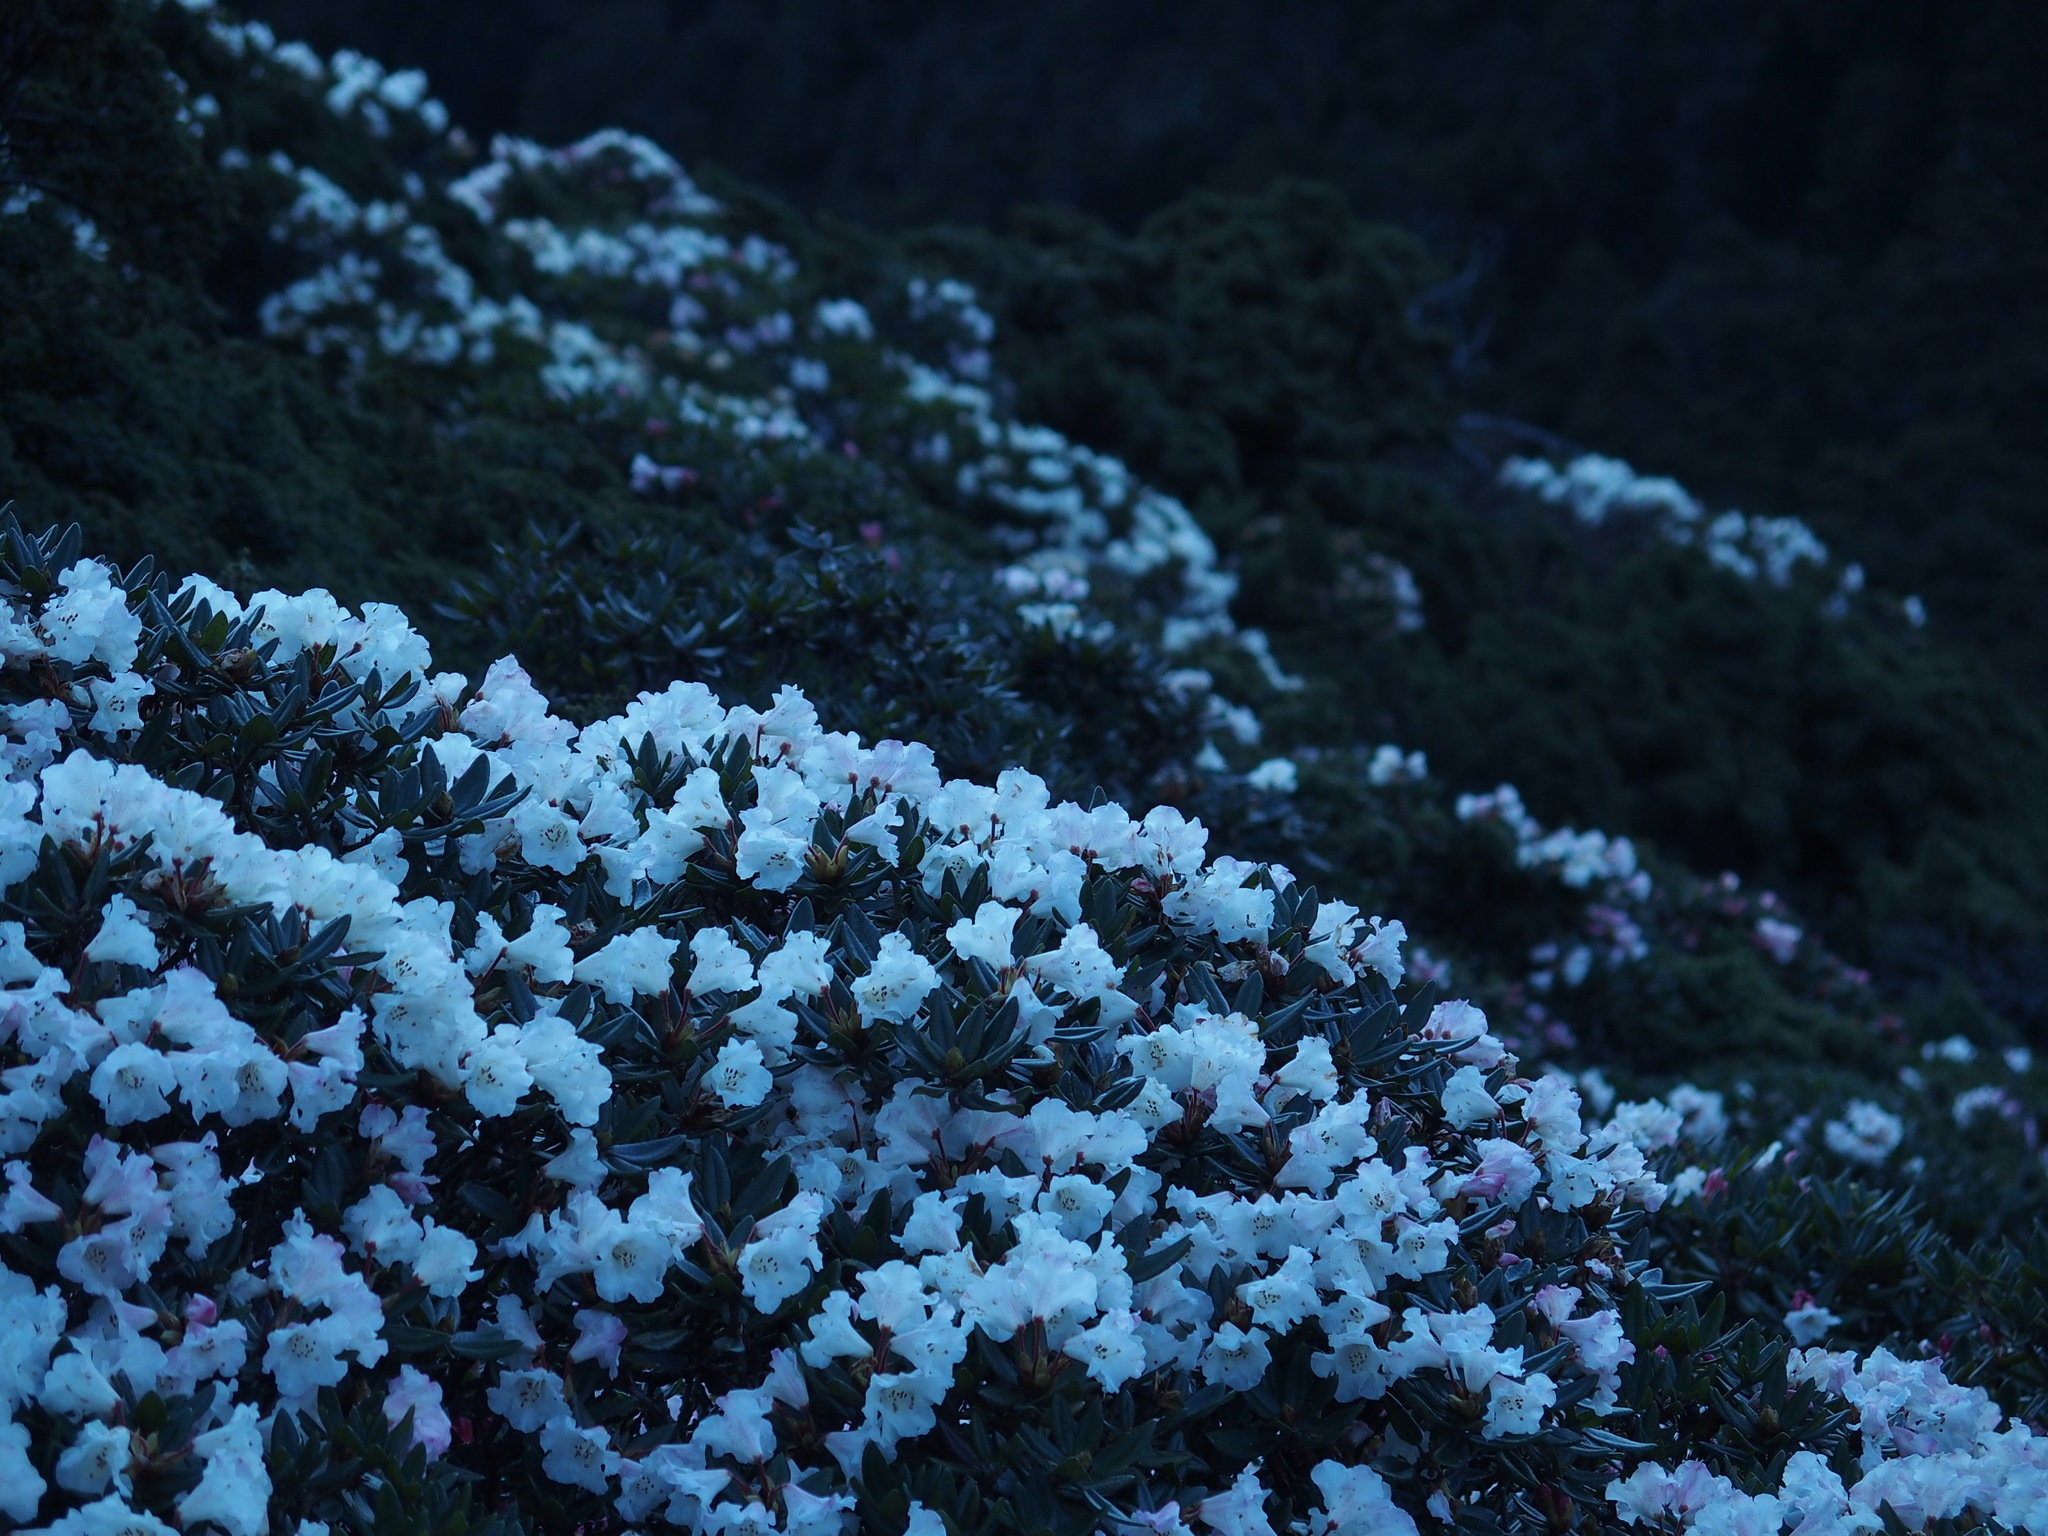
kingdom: Plantae
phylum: Tracheophyta
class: Magnoliopsida
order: Ericales
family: Ericaceae
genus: Rhododendron
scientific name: Rhododendron pseudochrysanthum
